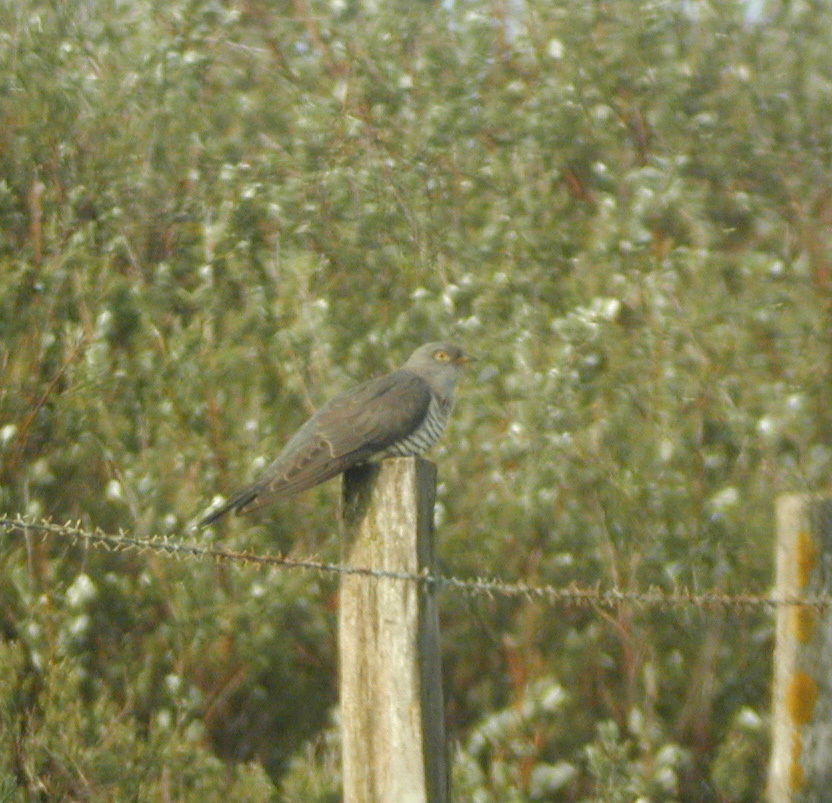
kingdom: Animalia
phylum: Chordata
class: Aves
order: Cuculiformes
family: Cuculidae
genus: Cuculus
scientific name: Cuculus canorus
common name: Common cuckoo
